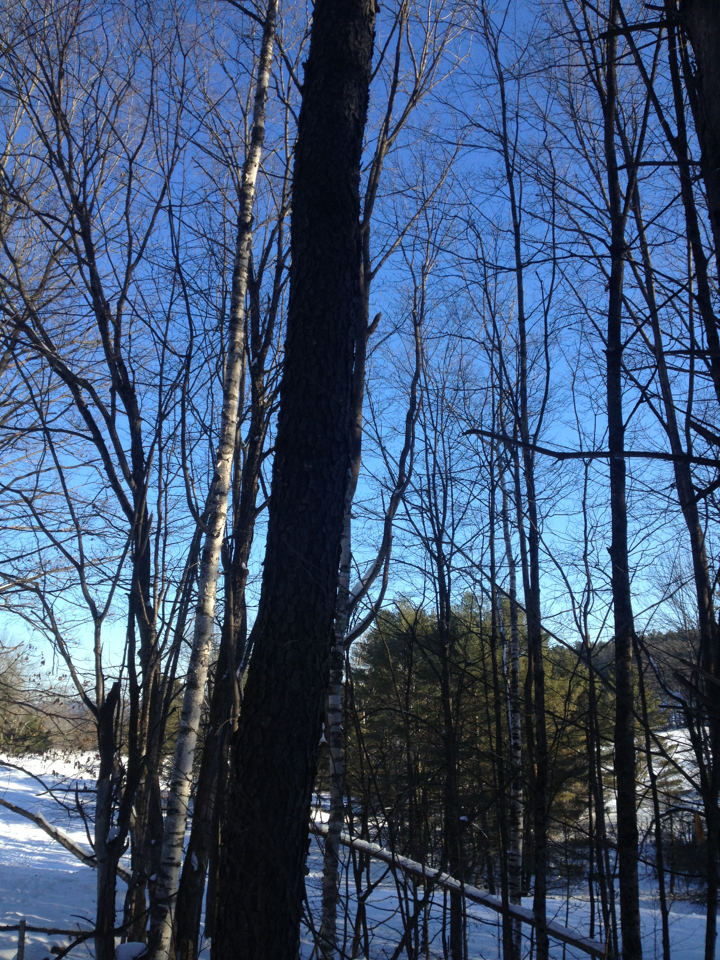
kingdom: Plantae
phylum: Tracheophyta
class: Magnoliopsida
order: Rosales
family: Rosaceae
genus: Prunus
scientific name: Prunus serotina
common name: Black cherry
